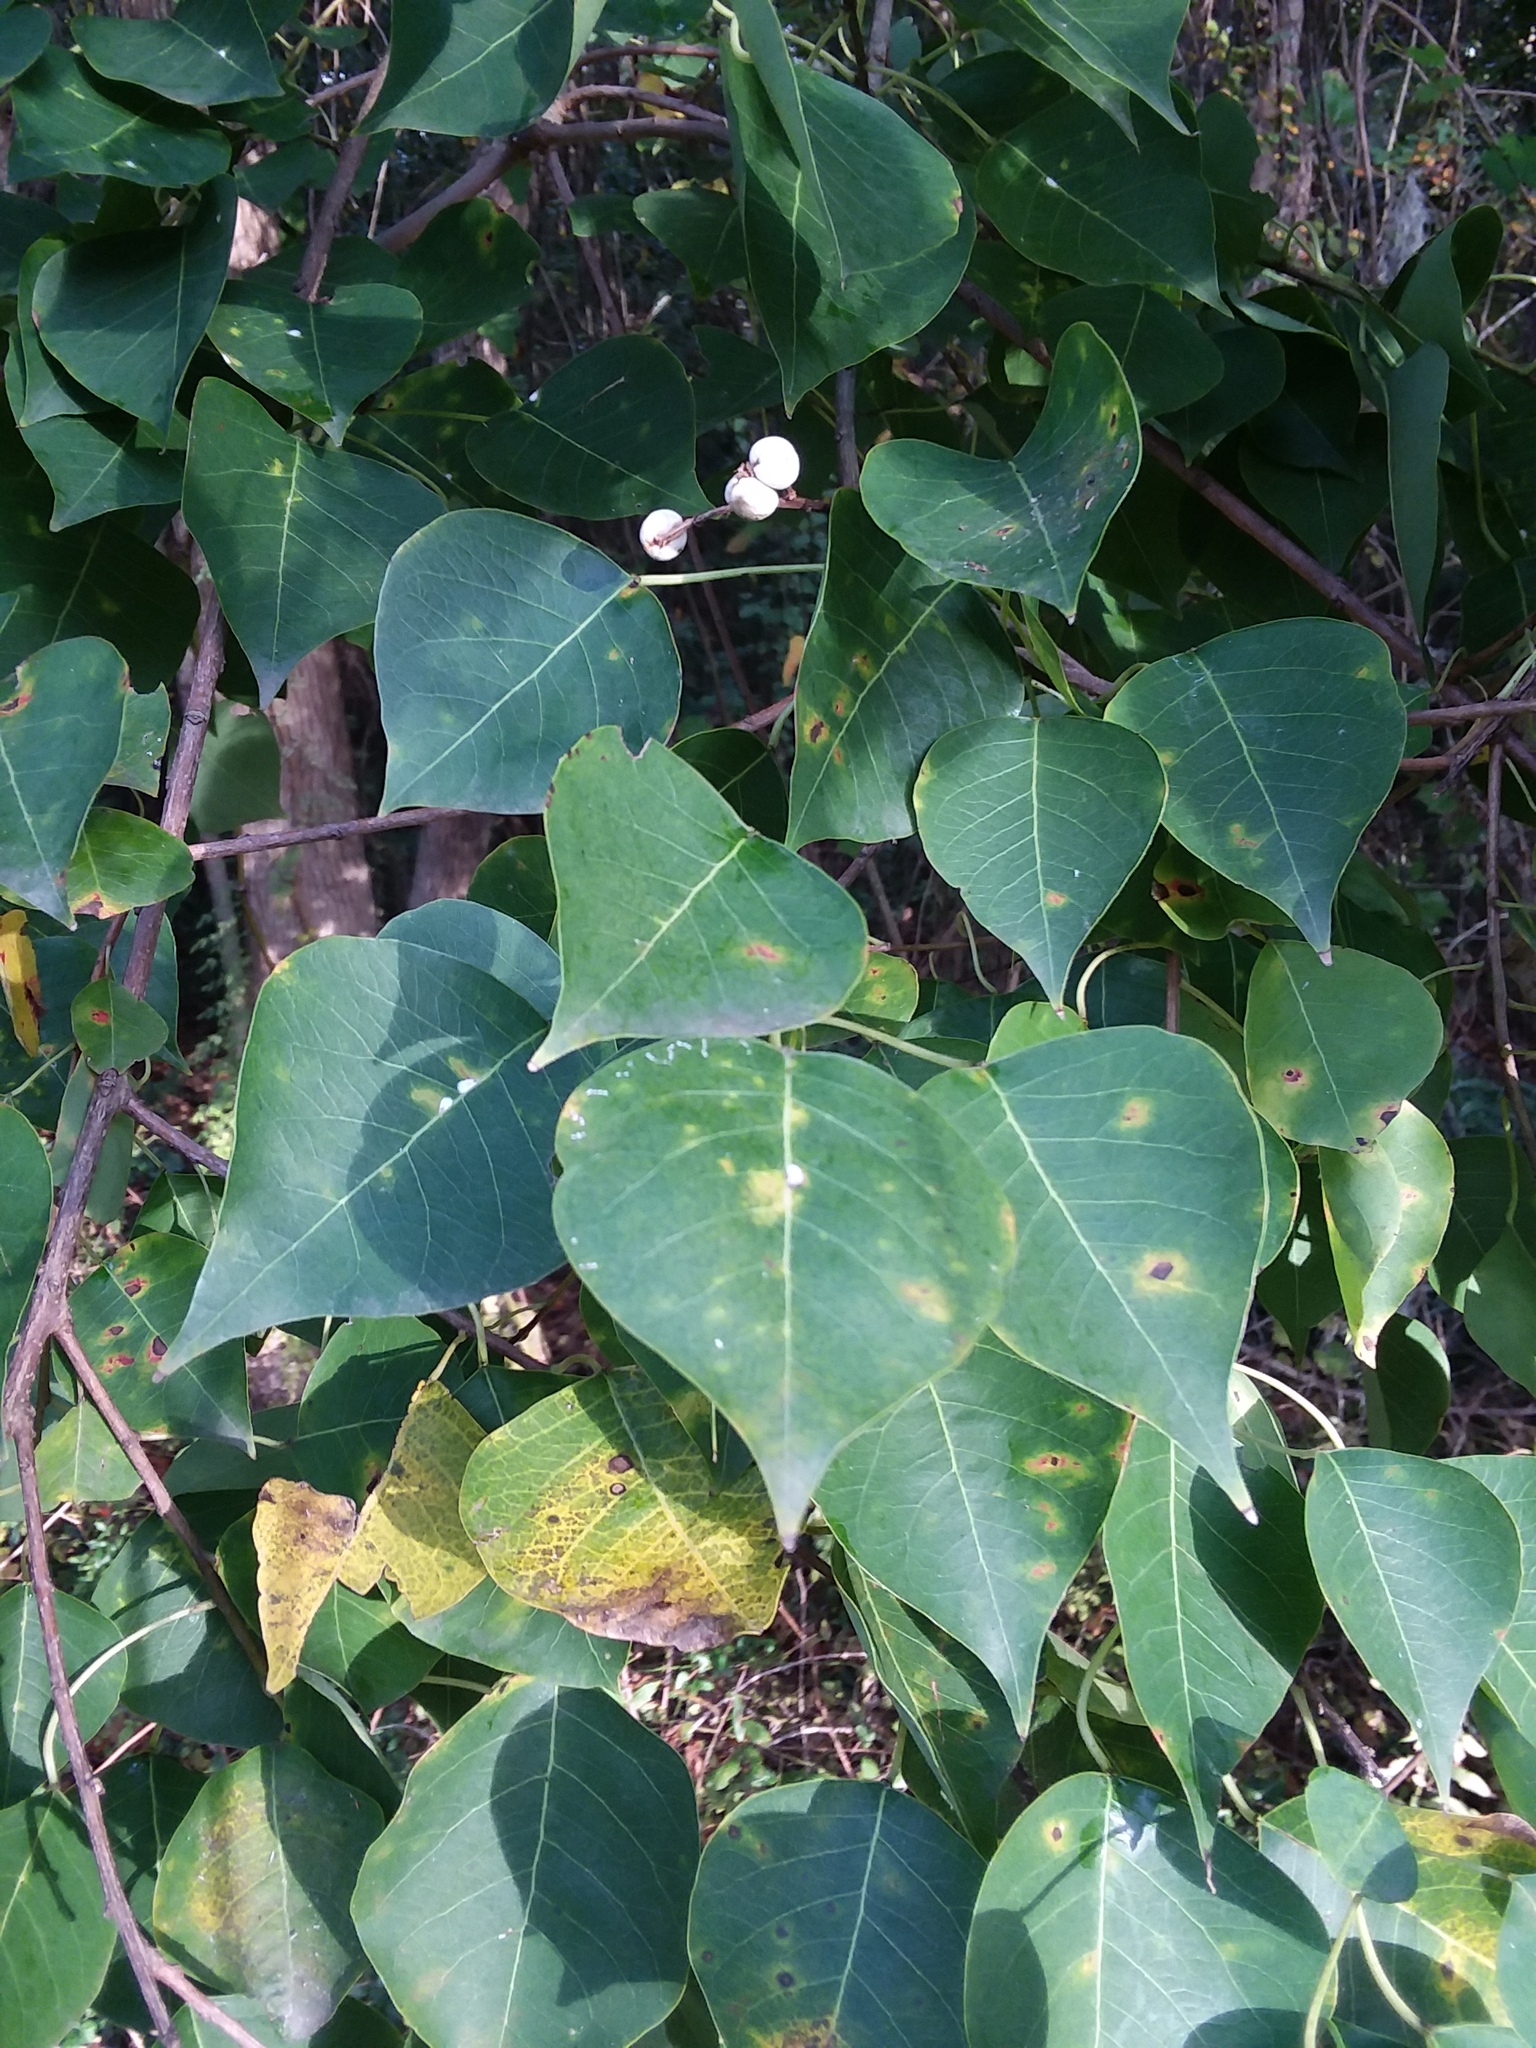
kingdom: Plantae
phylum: Tracheophyta
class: Magnoliopsida
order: Malpighiales
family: Euphorbiaceae
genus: Triadica
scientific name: Triadica sebifera
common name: Chinese tallow
